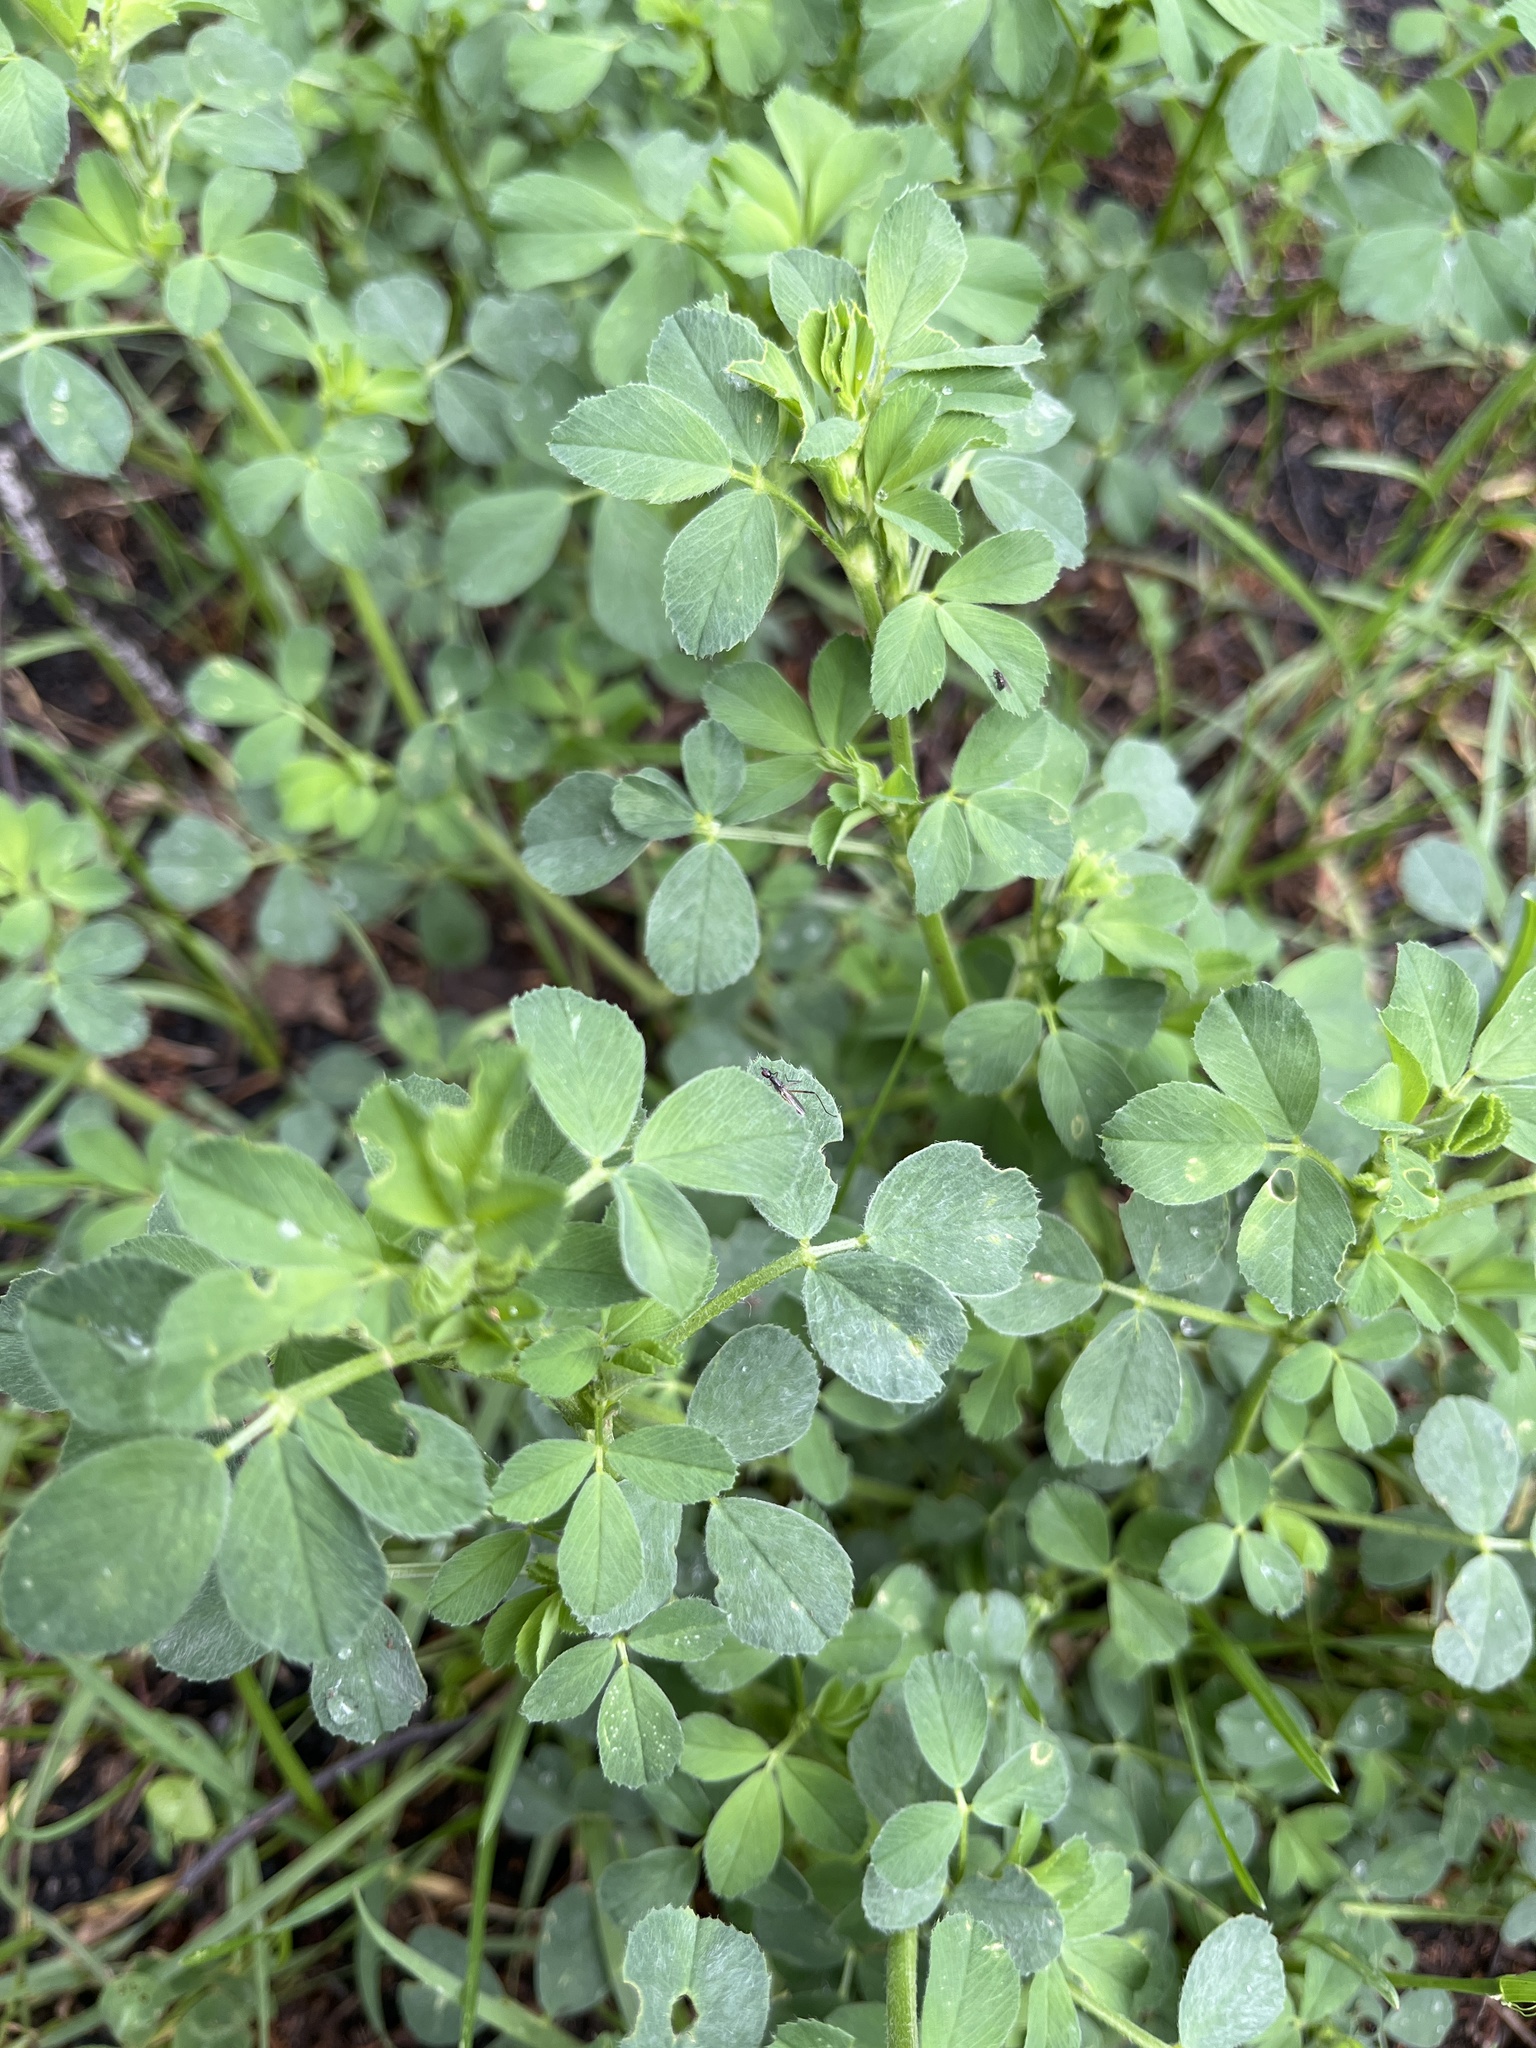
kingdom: Plantae
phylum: Tracheophyta
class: Magnoliopsida
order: Fabales
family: Fabaceae
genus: Medicago
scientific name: Medicago lupulina
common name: Black medick
